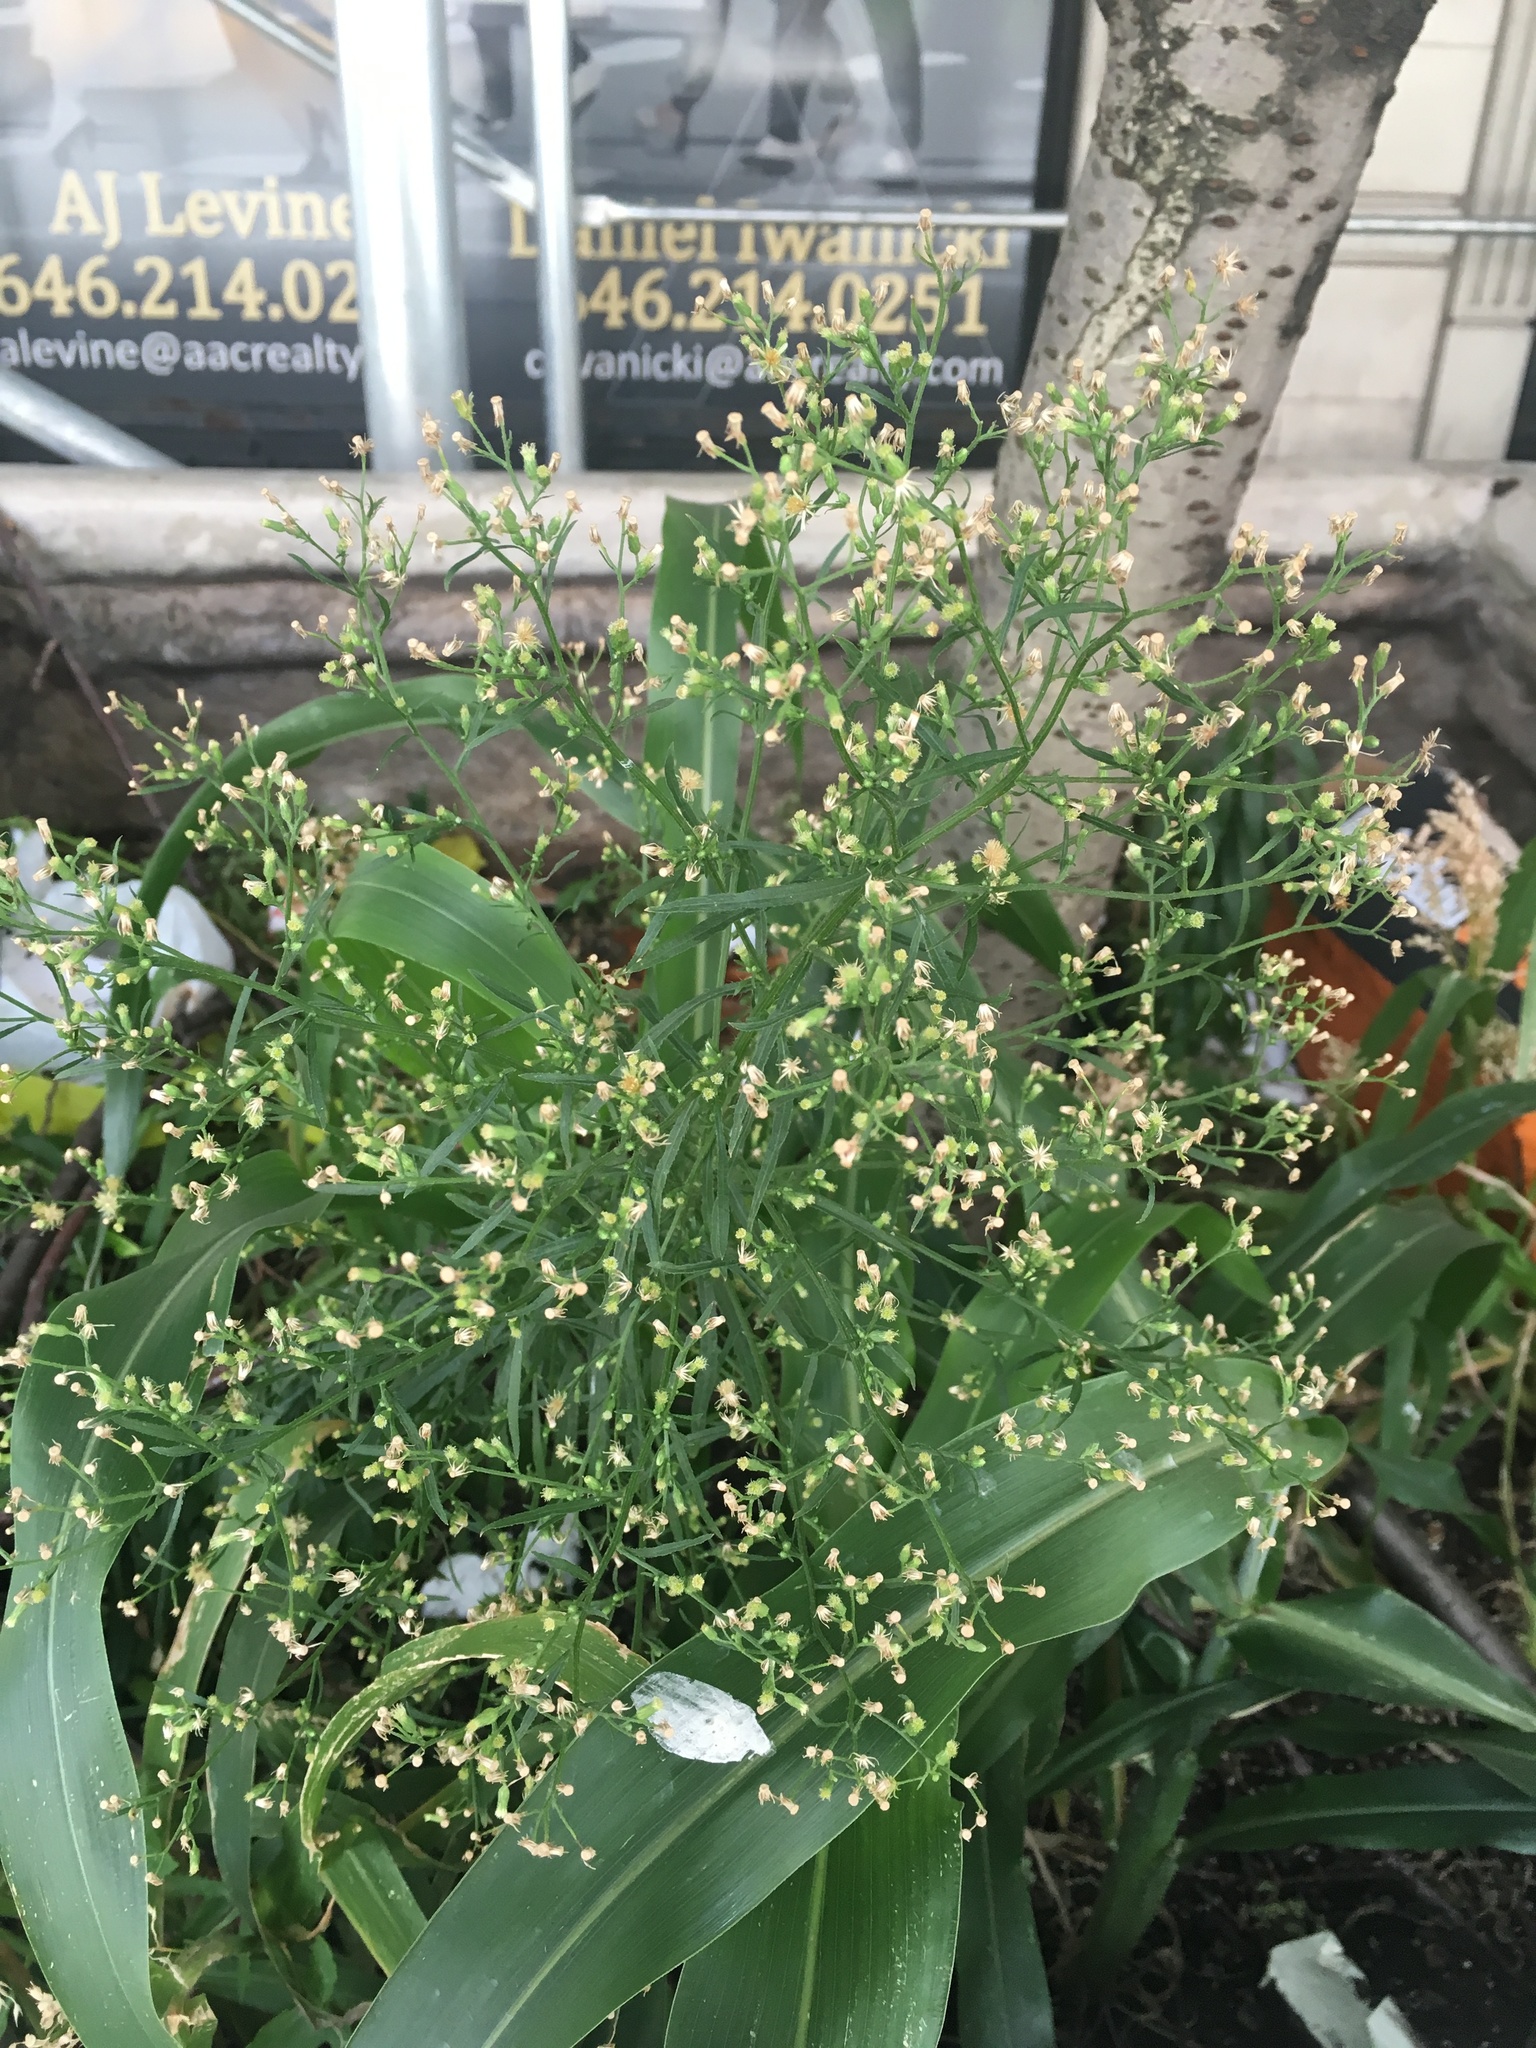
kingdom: Plantae
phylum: Tracheophyta
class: Magnoliopsida
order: Asterales
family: Asteraceae
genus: Erigeron
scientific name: Erigeron canadensis
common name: Canadian fleabane
